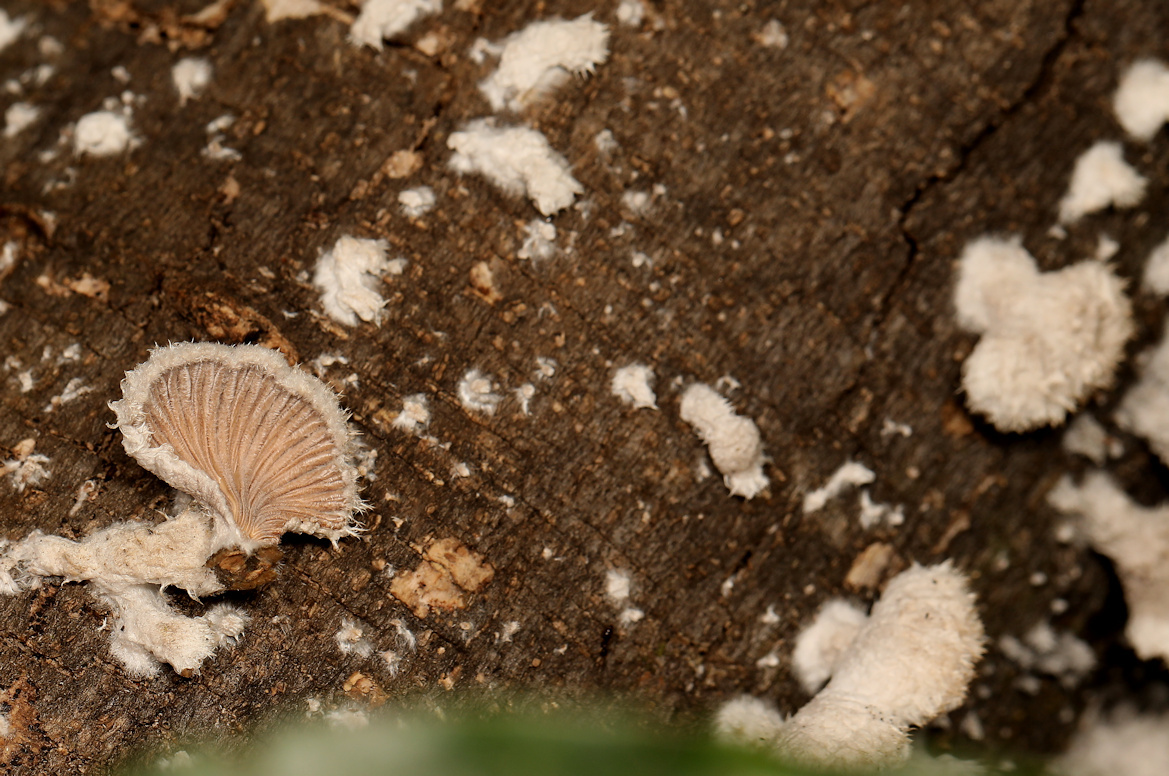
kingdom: Fungi
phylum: Basidiomycota
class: Agaricomycetes
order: Agaricales
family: Schizophyllaceae
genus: Schizophyllum
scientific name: Schizophyllum commune
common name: Common porecrust
